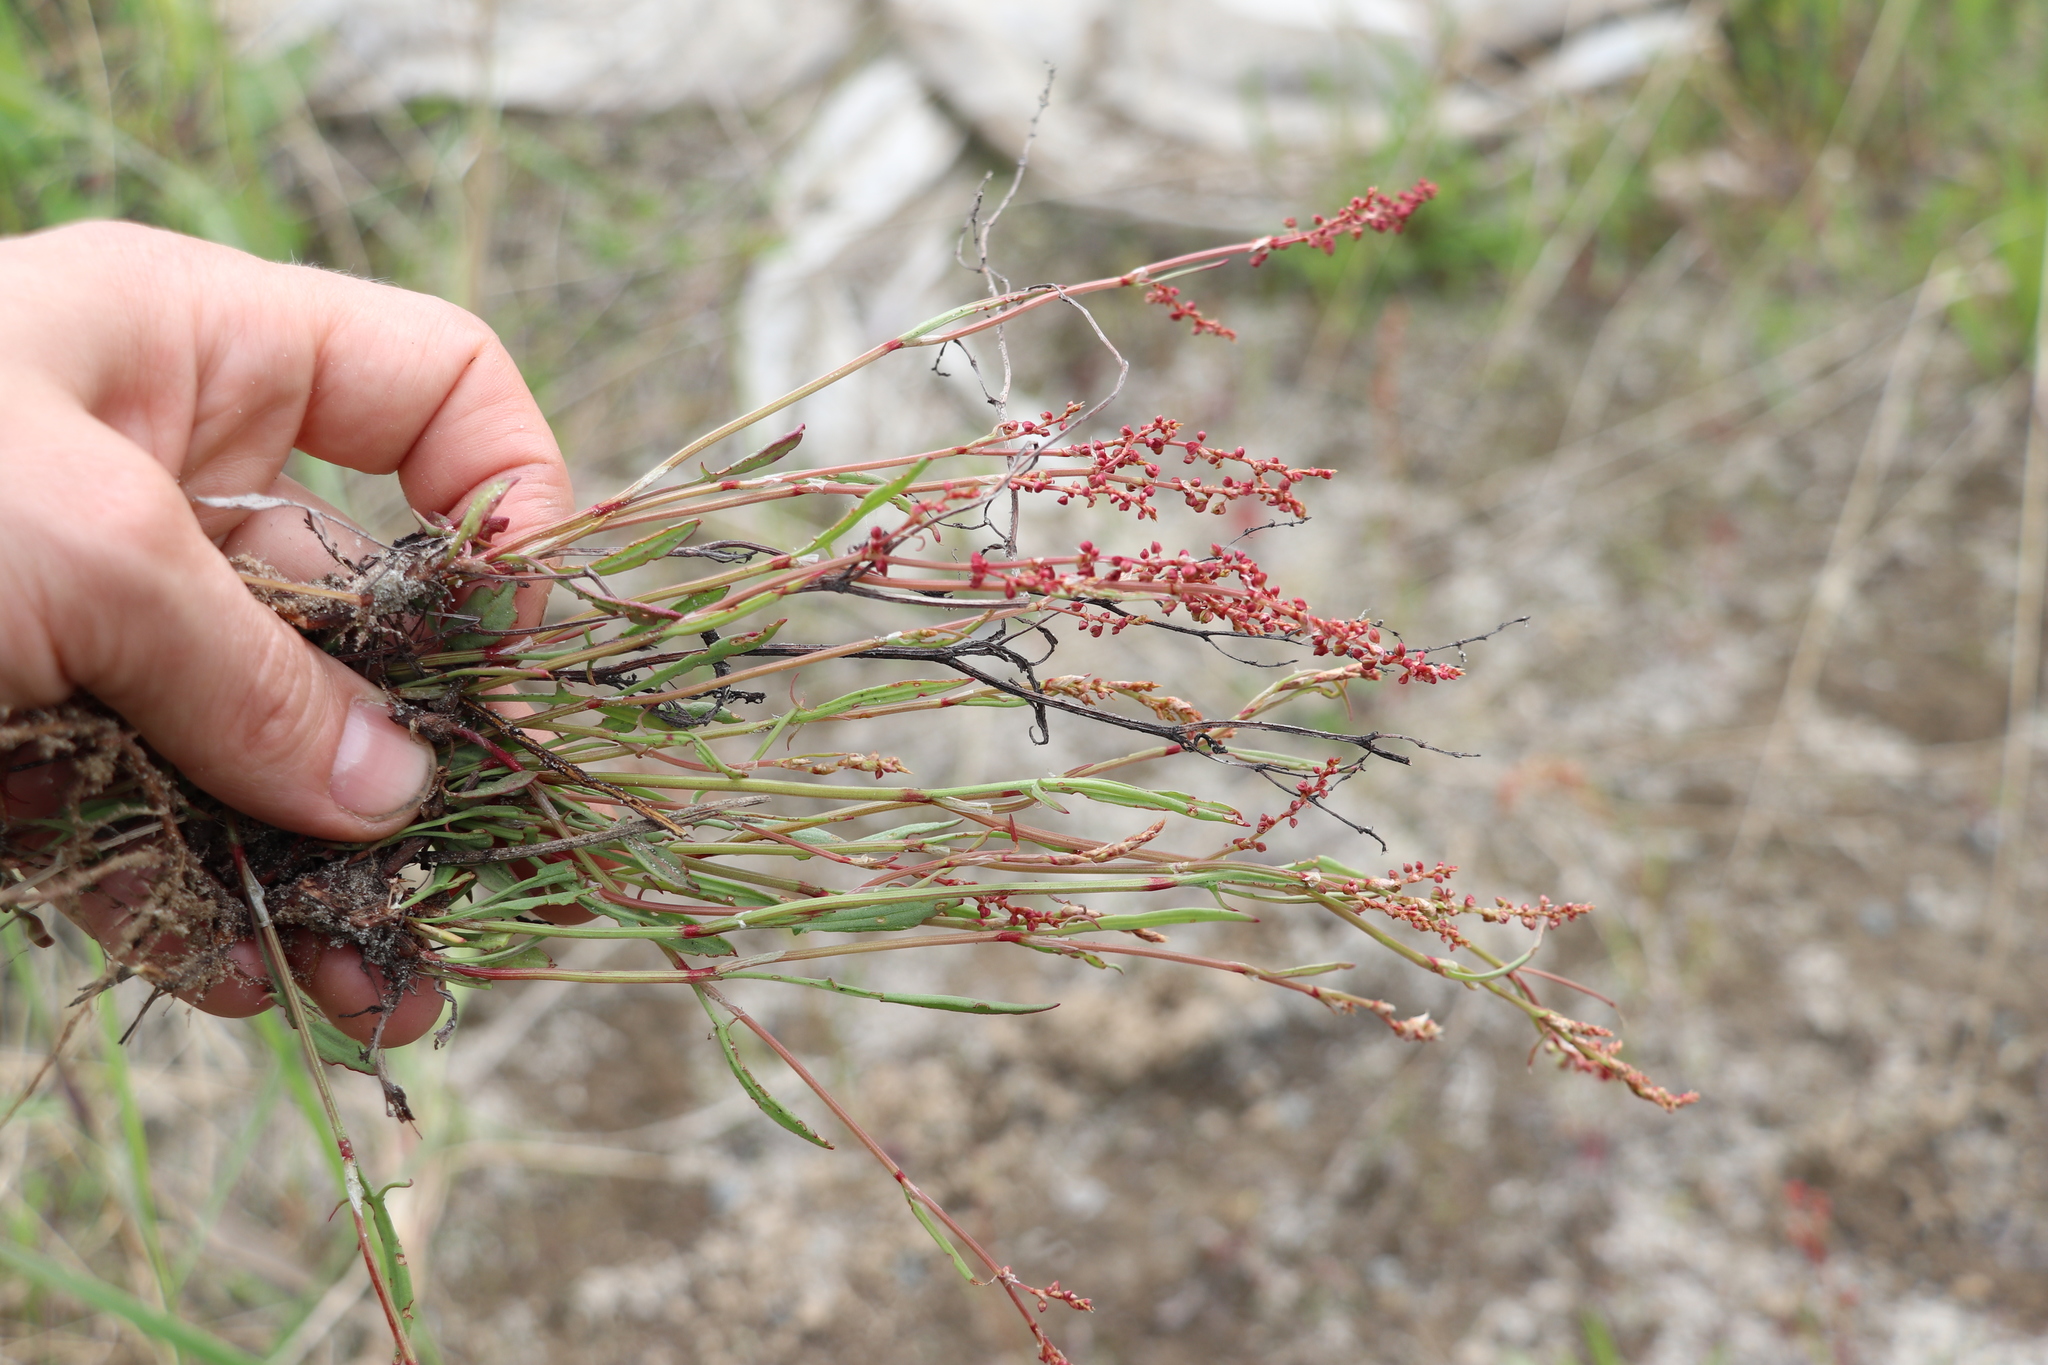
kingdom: Plantae
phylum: Tracheophyta
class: Magnoliopsida
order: Caryophyllales
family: Polygonaceae
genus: Rumex
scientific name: Rumex acetosella
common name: Common sheep sorrel
